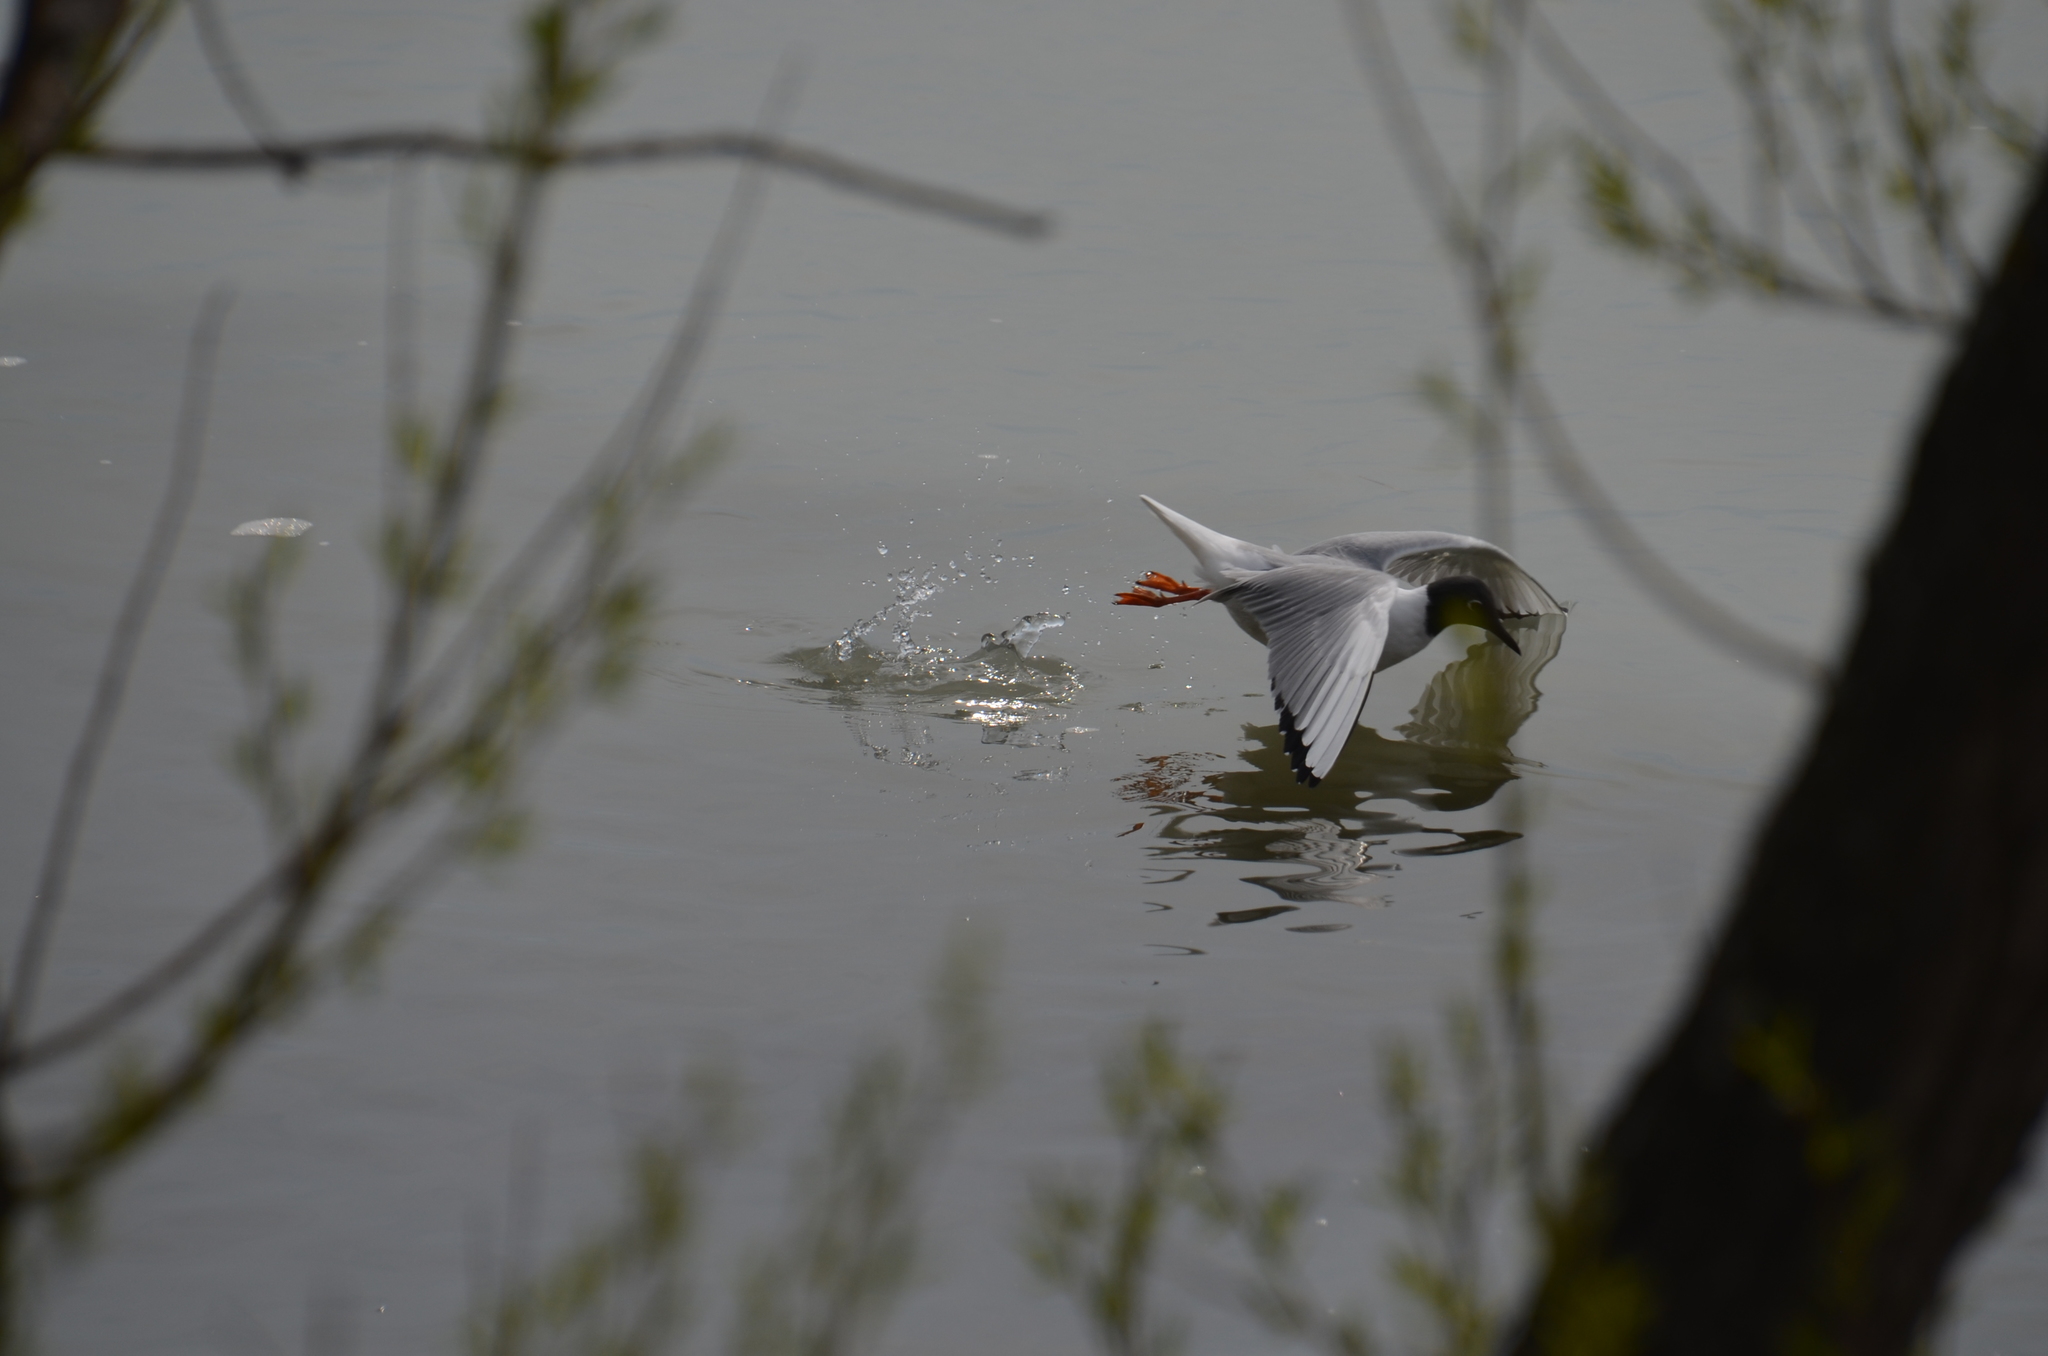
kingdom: Animalia
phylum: Chordata
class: Aves
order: Charadriiformes
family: Laridae
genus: Chroicocephalus
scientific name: Chroicocephalus philadelphia
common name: Bonaparte's gull
